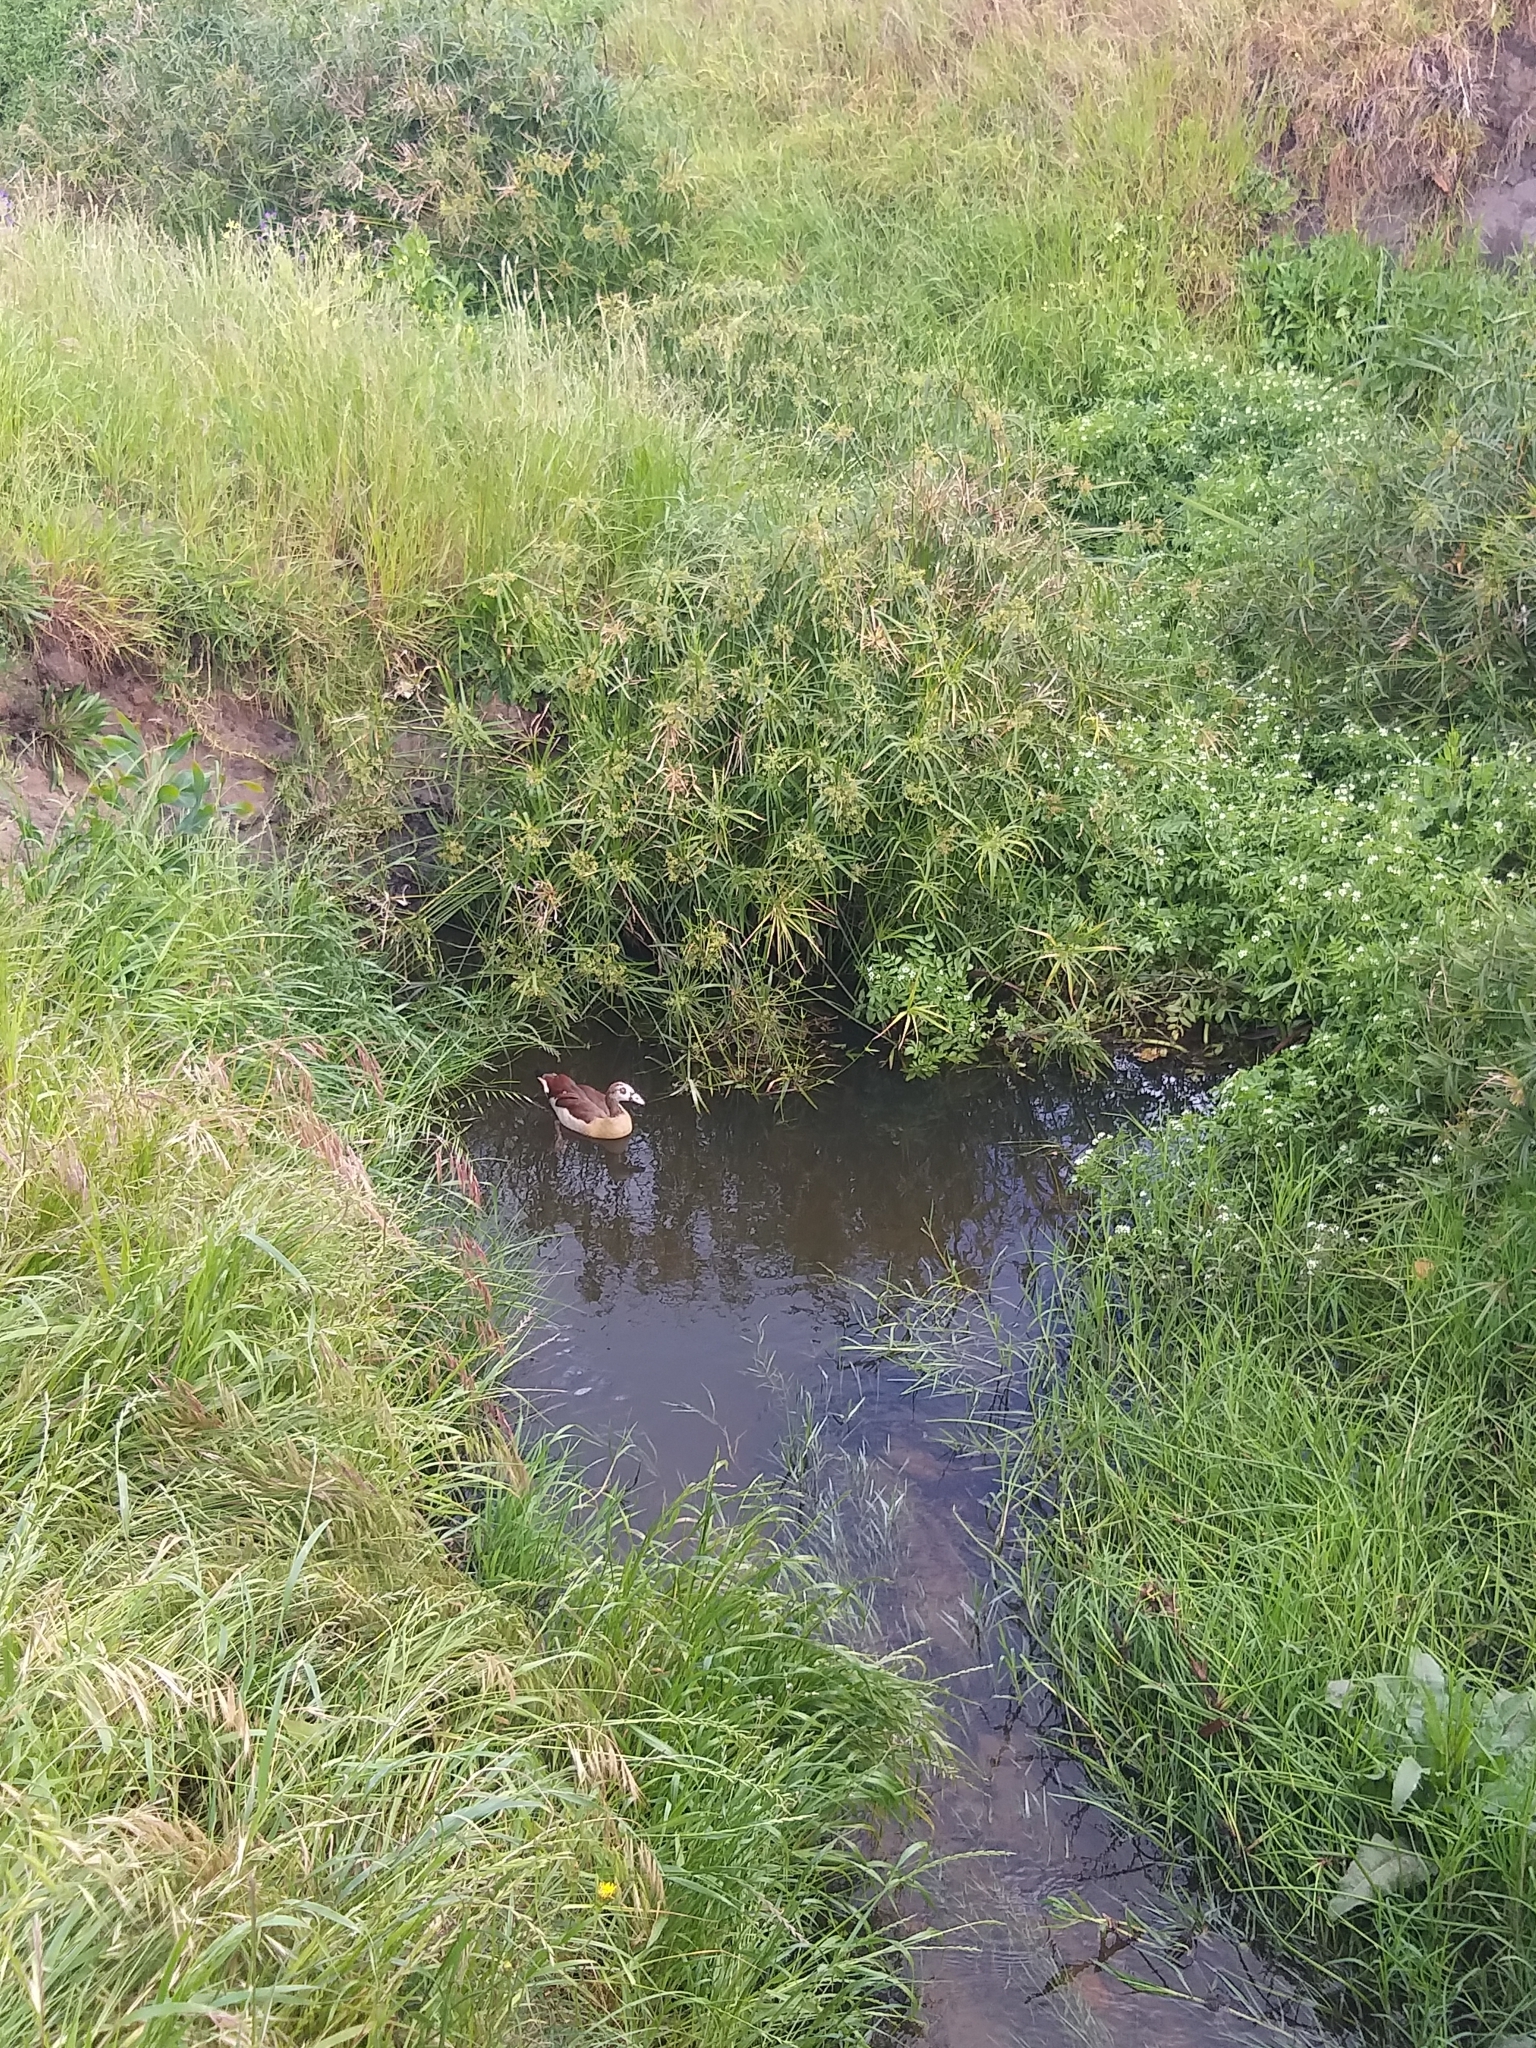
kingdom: Animalia
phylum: Chordata
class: Aves
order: Anseriformes
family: Anatidae
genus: Alopochen
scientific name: Alopochen aegyptiaca
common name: Egyptian goose
